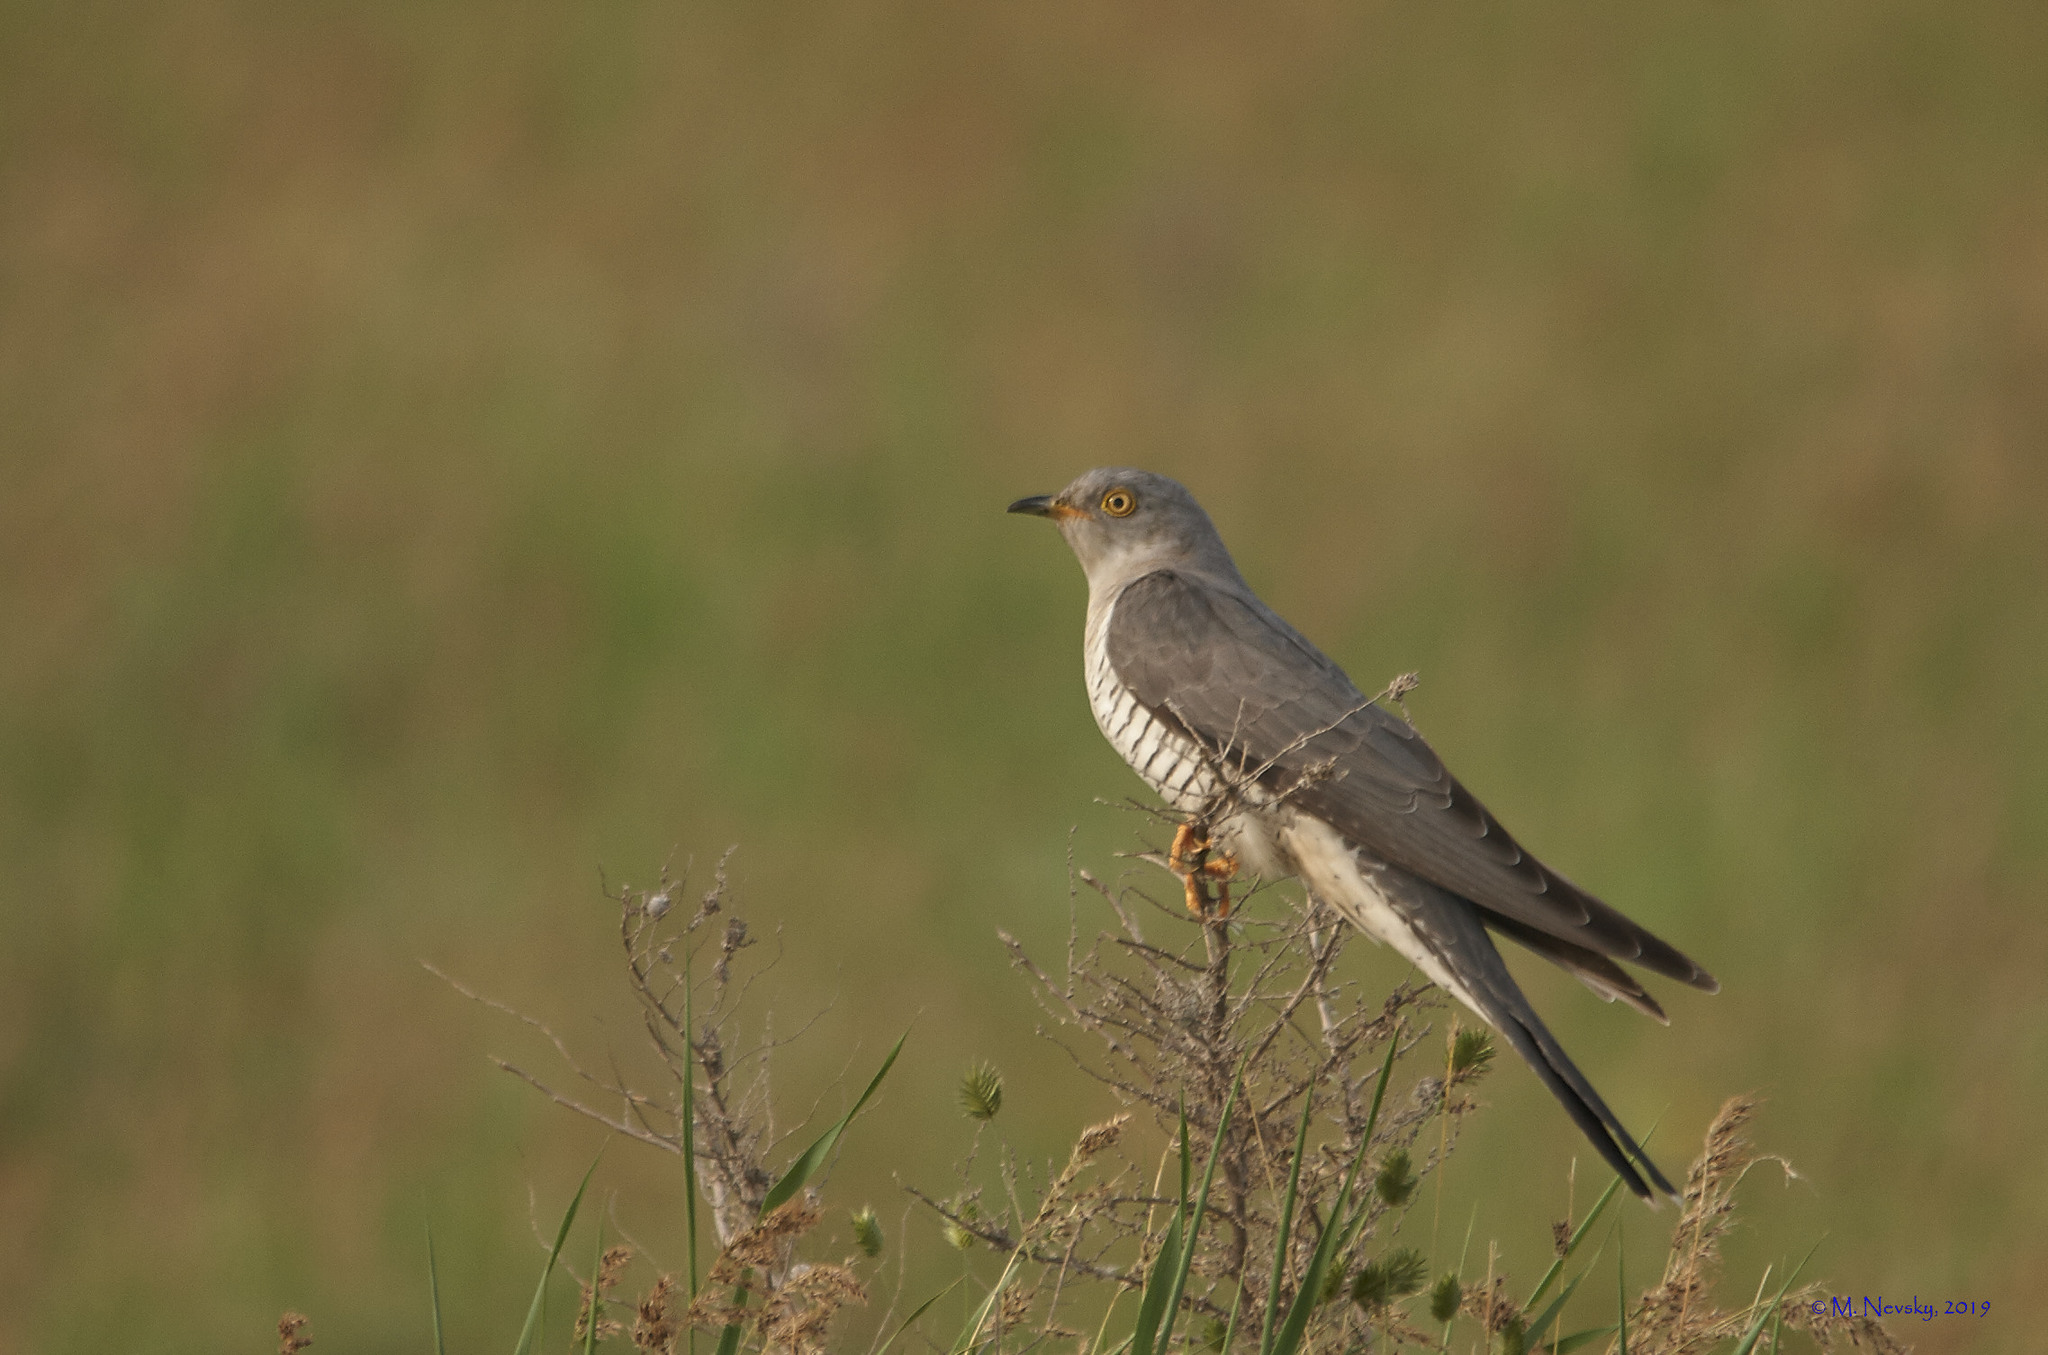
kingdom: Animalia
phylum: Chordata
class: Aves
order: Cuculiformes
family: Cuculidae
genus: Cuculus
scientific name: Cuculus canorus
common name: Common cuckoo
